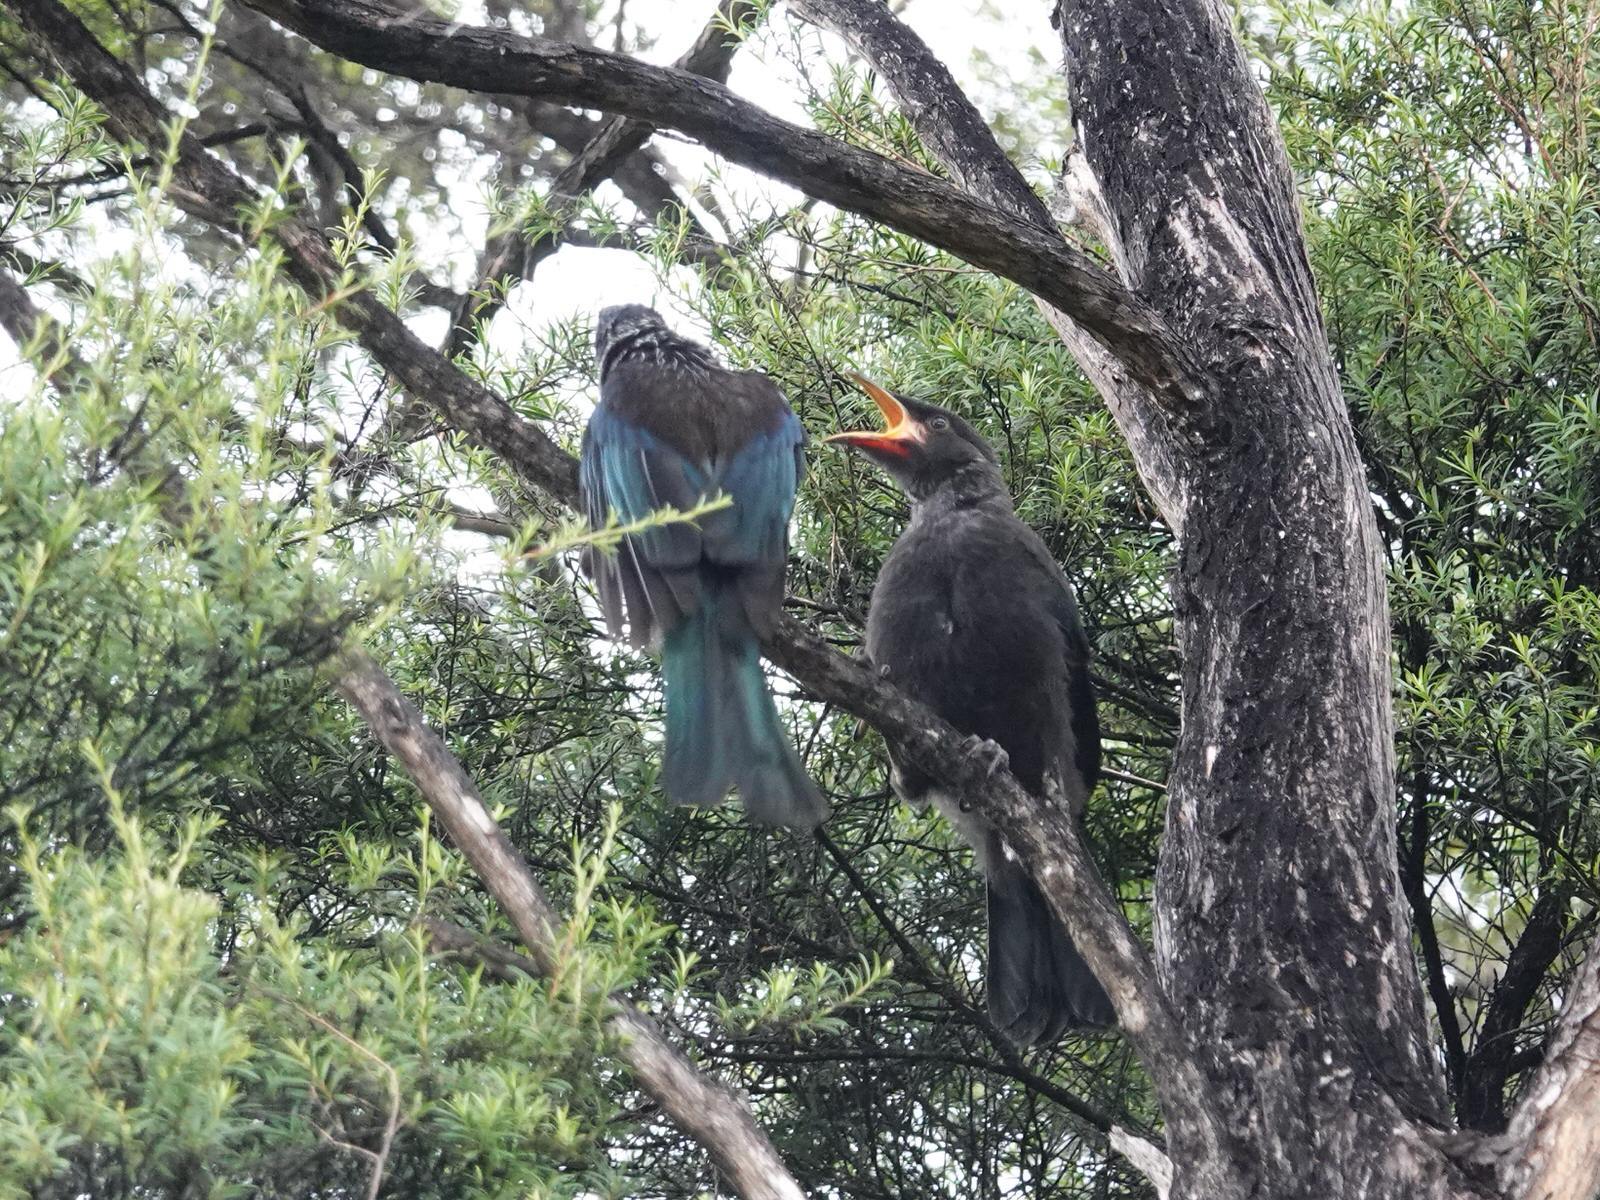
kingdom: Animalia
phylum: Chordata
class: Aves
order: Passeriformes
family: Meliphagidae
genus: Prosthemadera
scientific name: Prosthemadera novaeseelandiae
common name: Tui
